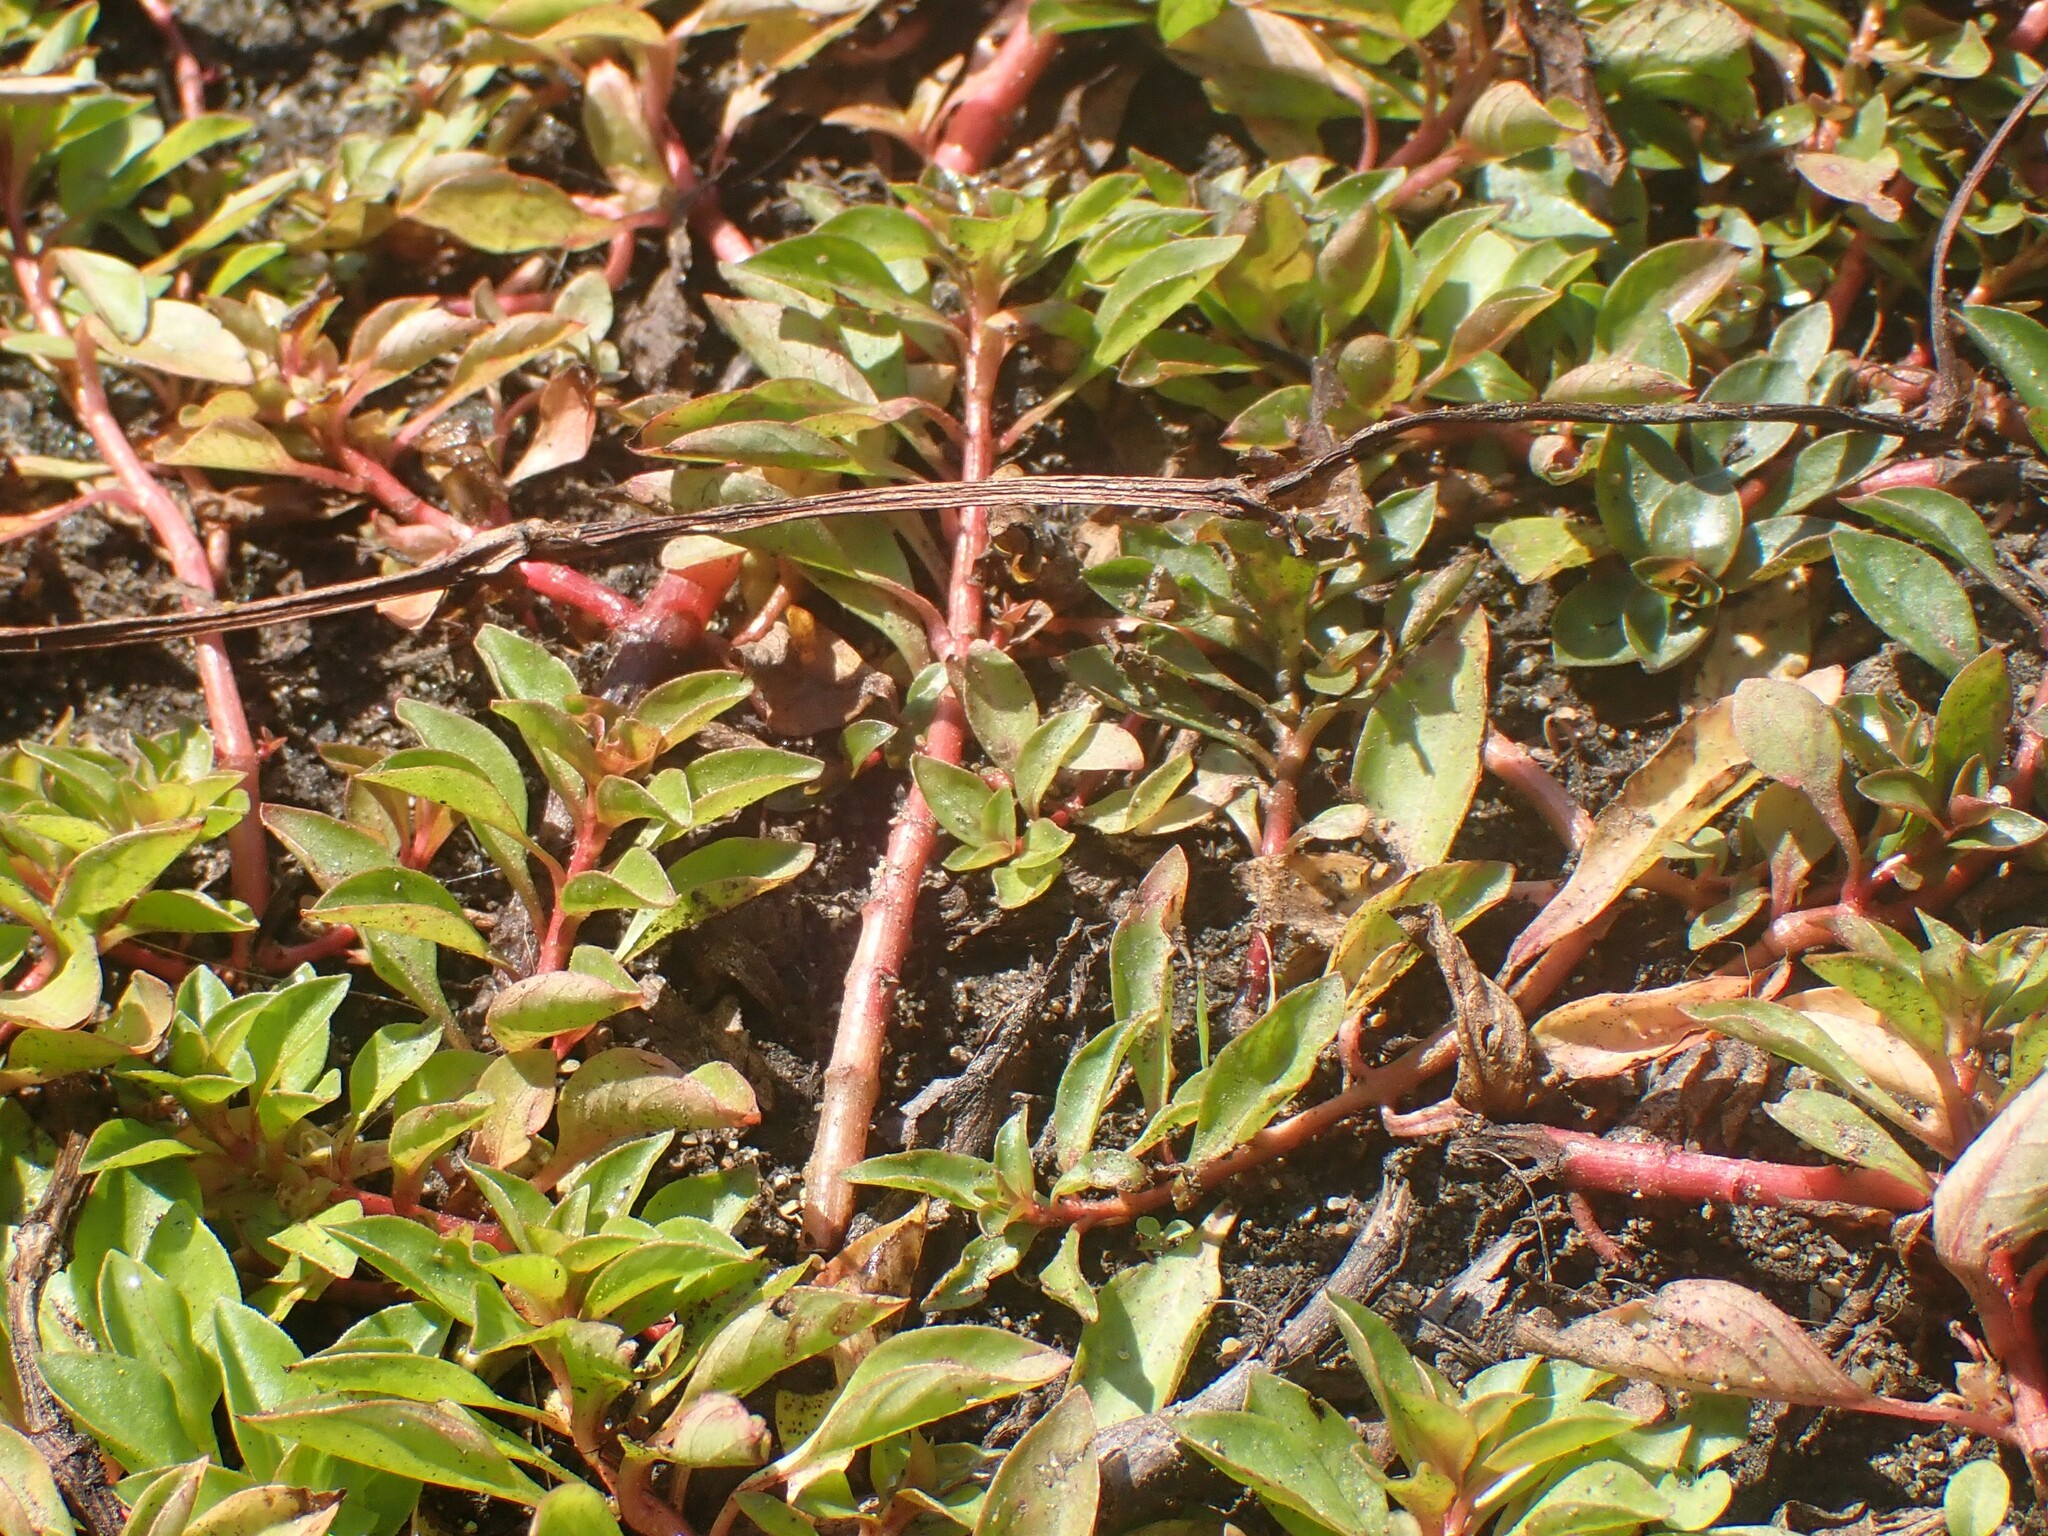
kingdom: Plantae
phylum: Tracheophyta
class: Magnoliopsida
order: Myrtales
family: Onagraceae
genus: Ludwigia
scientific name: Ludwigia palustris
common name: Hampshire-purslane
